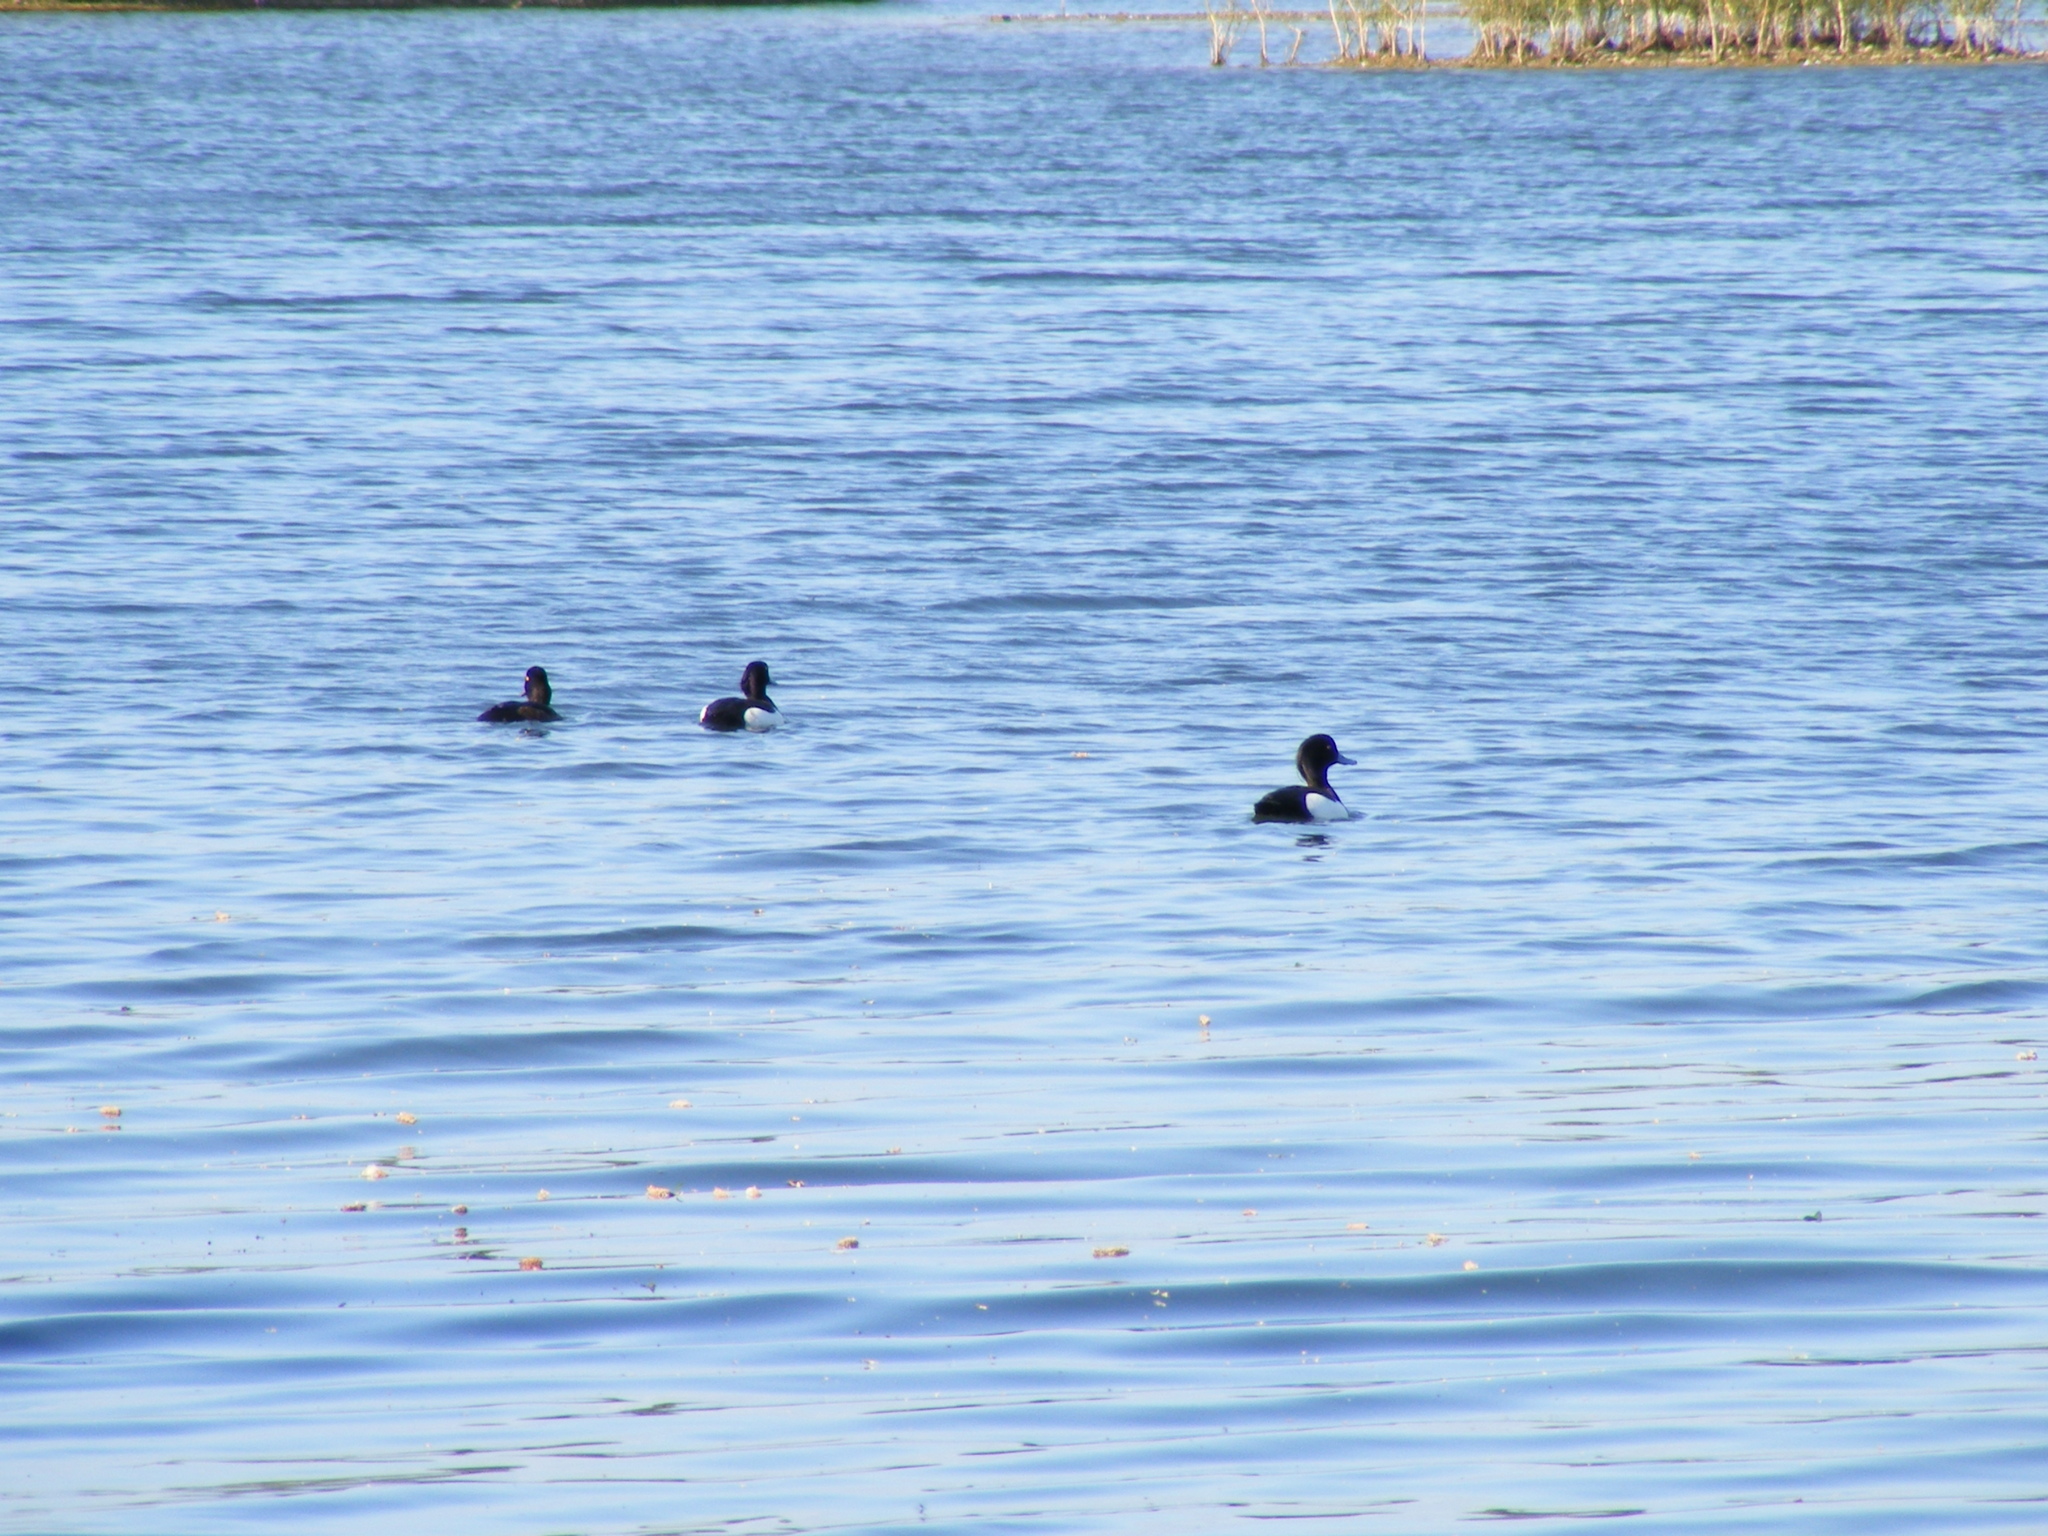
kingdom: Animalia
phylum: Chordata
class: Aves
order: Anseriformes
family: Anatidae
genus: Aythya
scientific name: Aythya fuligula
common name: Tufted duck
